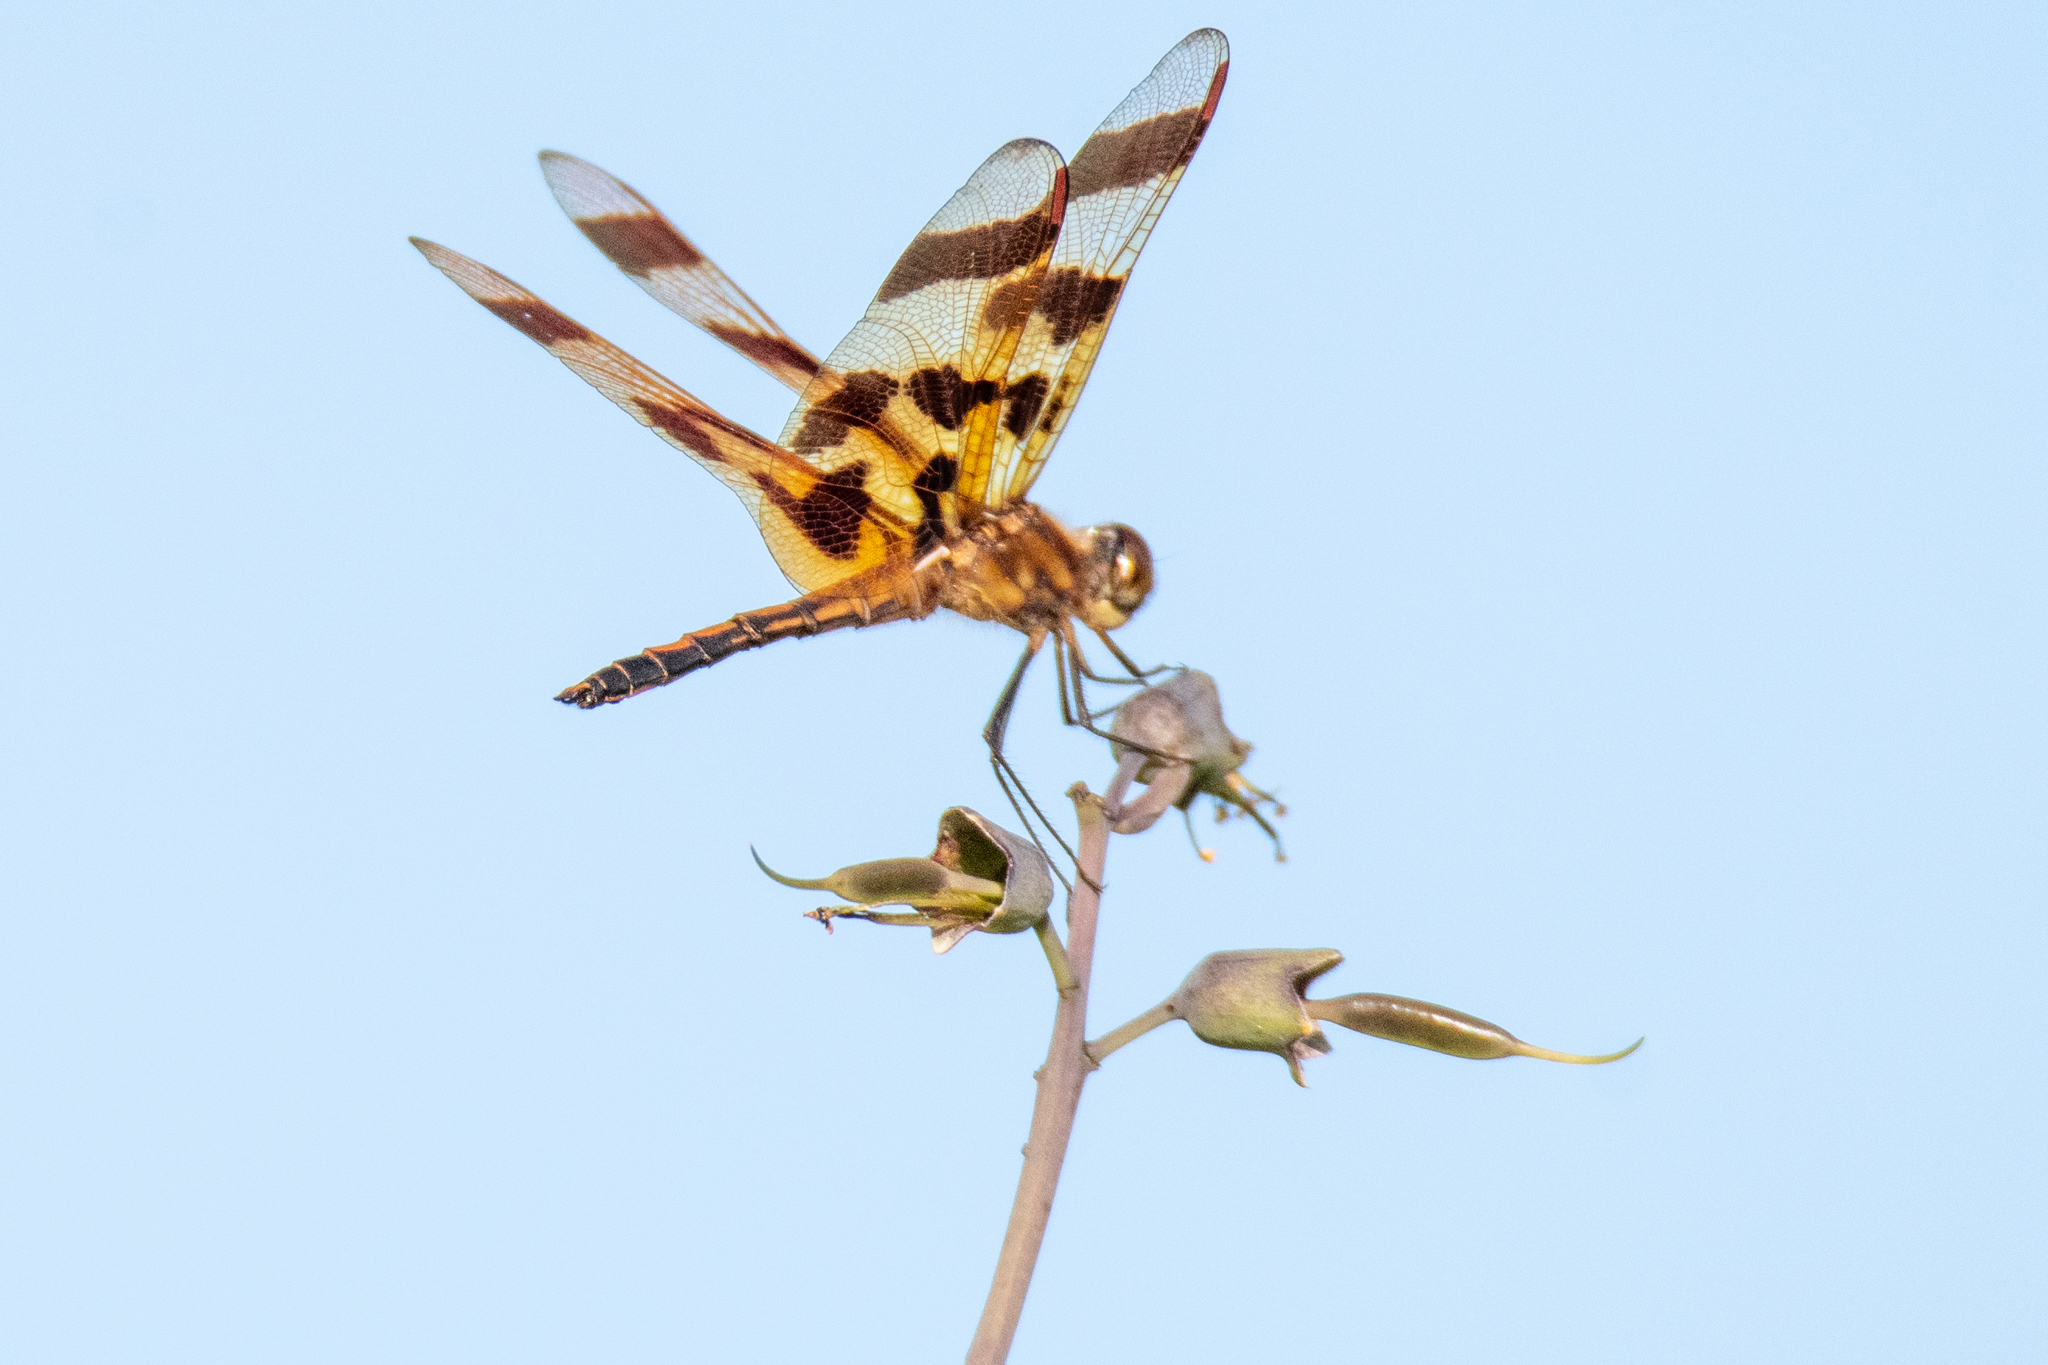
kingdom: Animalia
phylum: Arthropoda
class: Insecta
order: Odonata
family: Libellulidae
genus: Celithemis
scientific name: Celithemis eponina
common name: Halloween pennant
